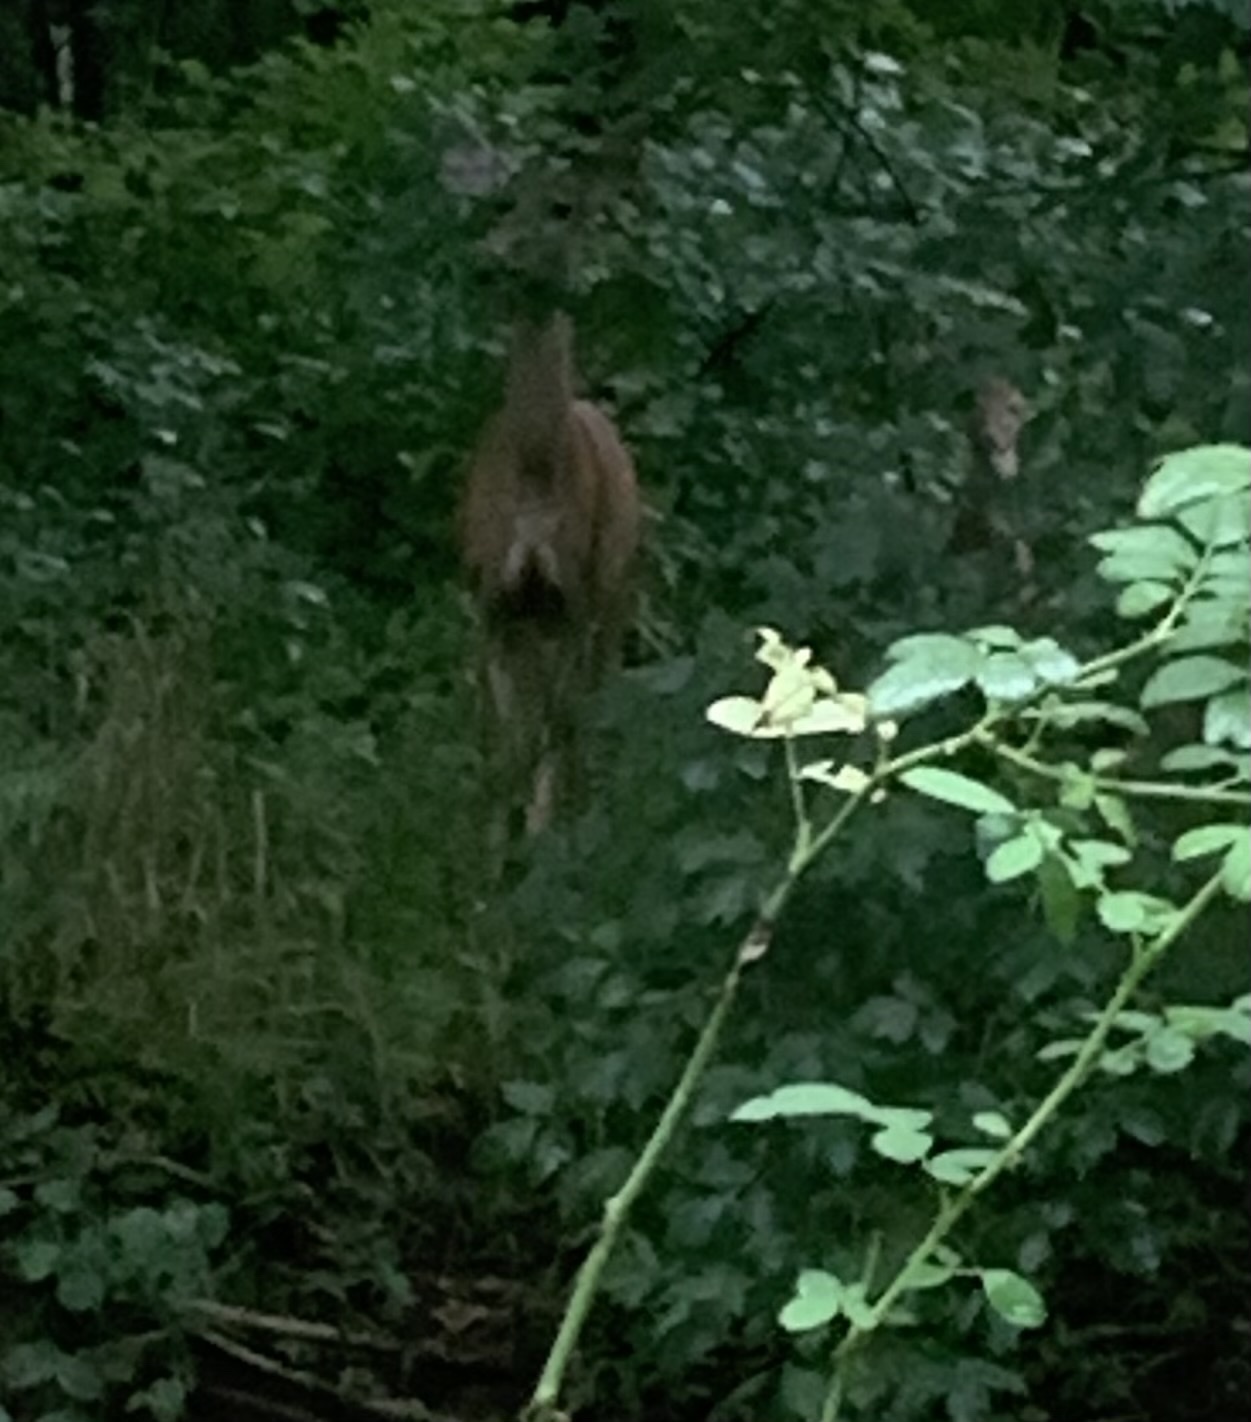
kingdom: Animalia
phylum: Chordata
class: Mammalia
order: Artiodactyla
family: Cervidae
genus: Odocoileus
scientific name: Odocoileus virginianus
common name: White-tailed deer
